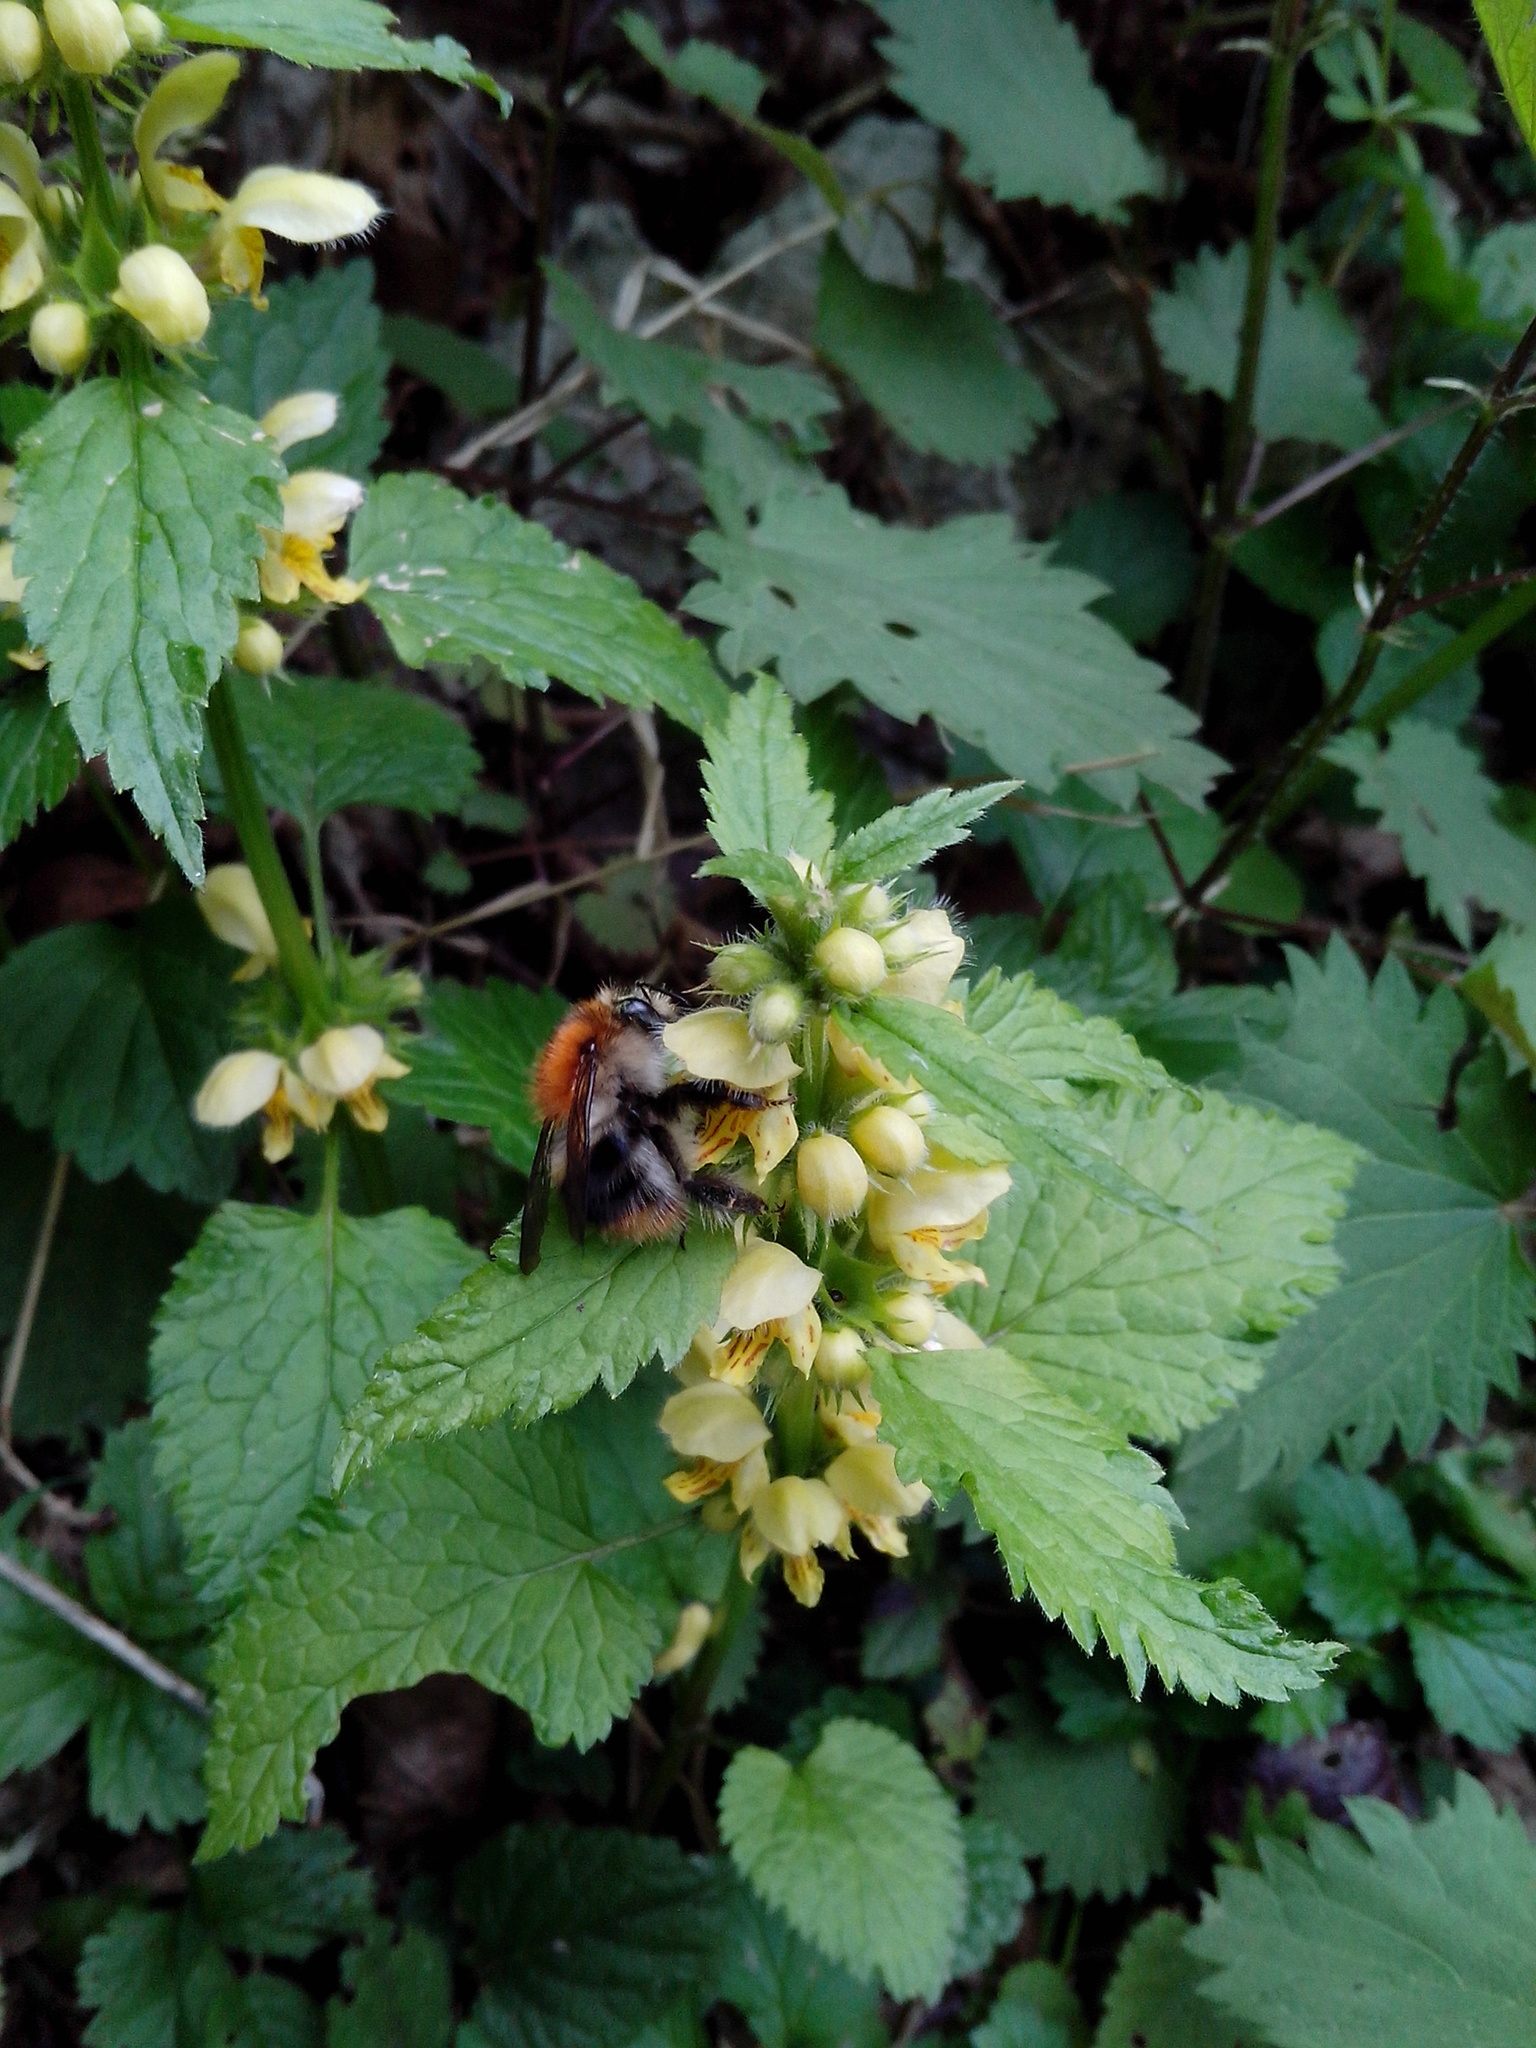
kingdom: Plantae
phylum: Tracheophyta
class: Magnoliopsida
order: Lamiales
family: Lamiaceae
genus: Lamium
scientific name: Lamium galeobdolon
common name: Yellow archangel
